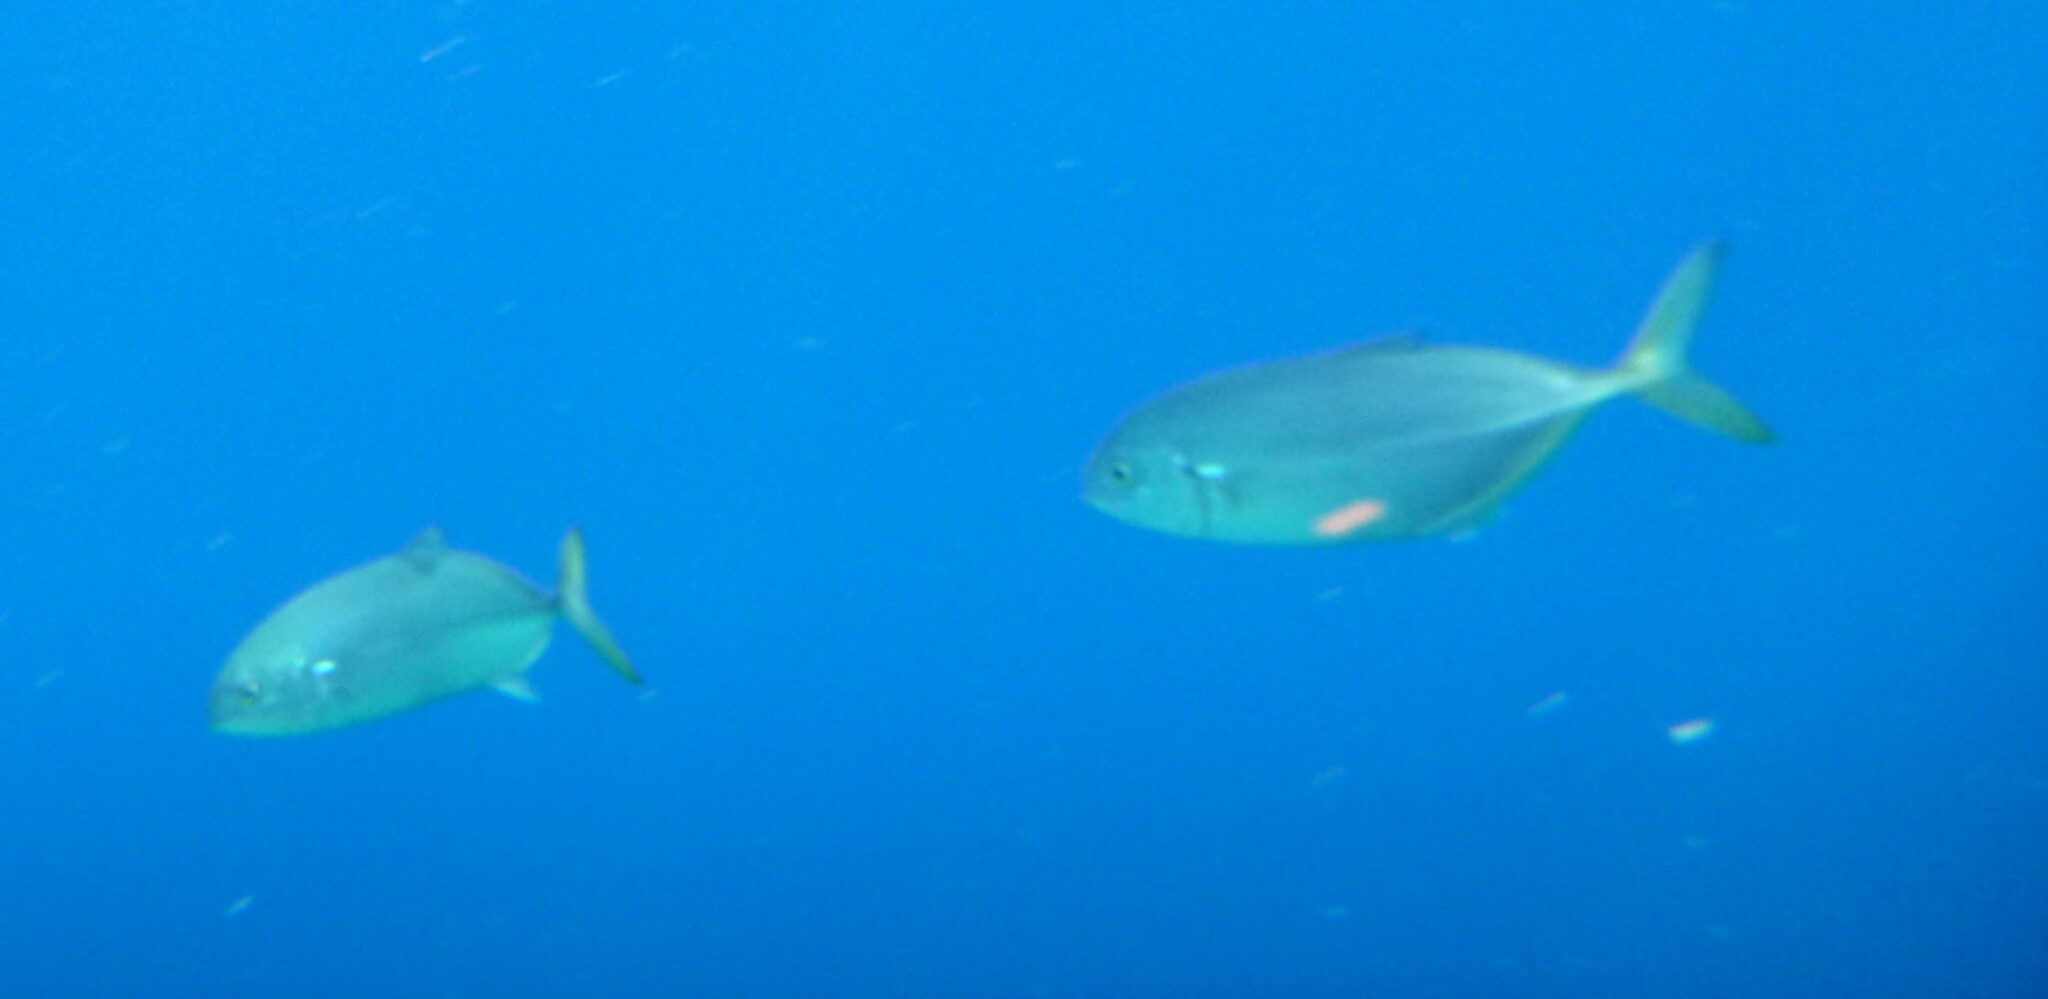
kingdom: Animalia
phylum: Chordata
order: Perciformes
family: Carangidae
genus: Caranx
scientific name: Caranx crysos
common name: Blue runner
